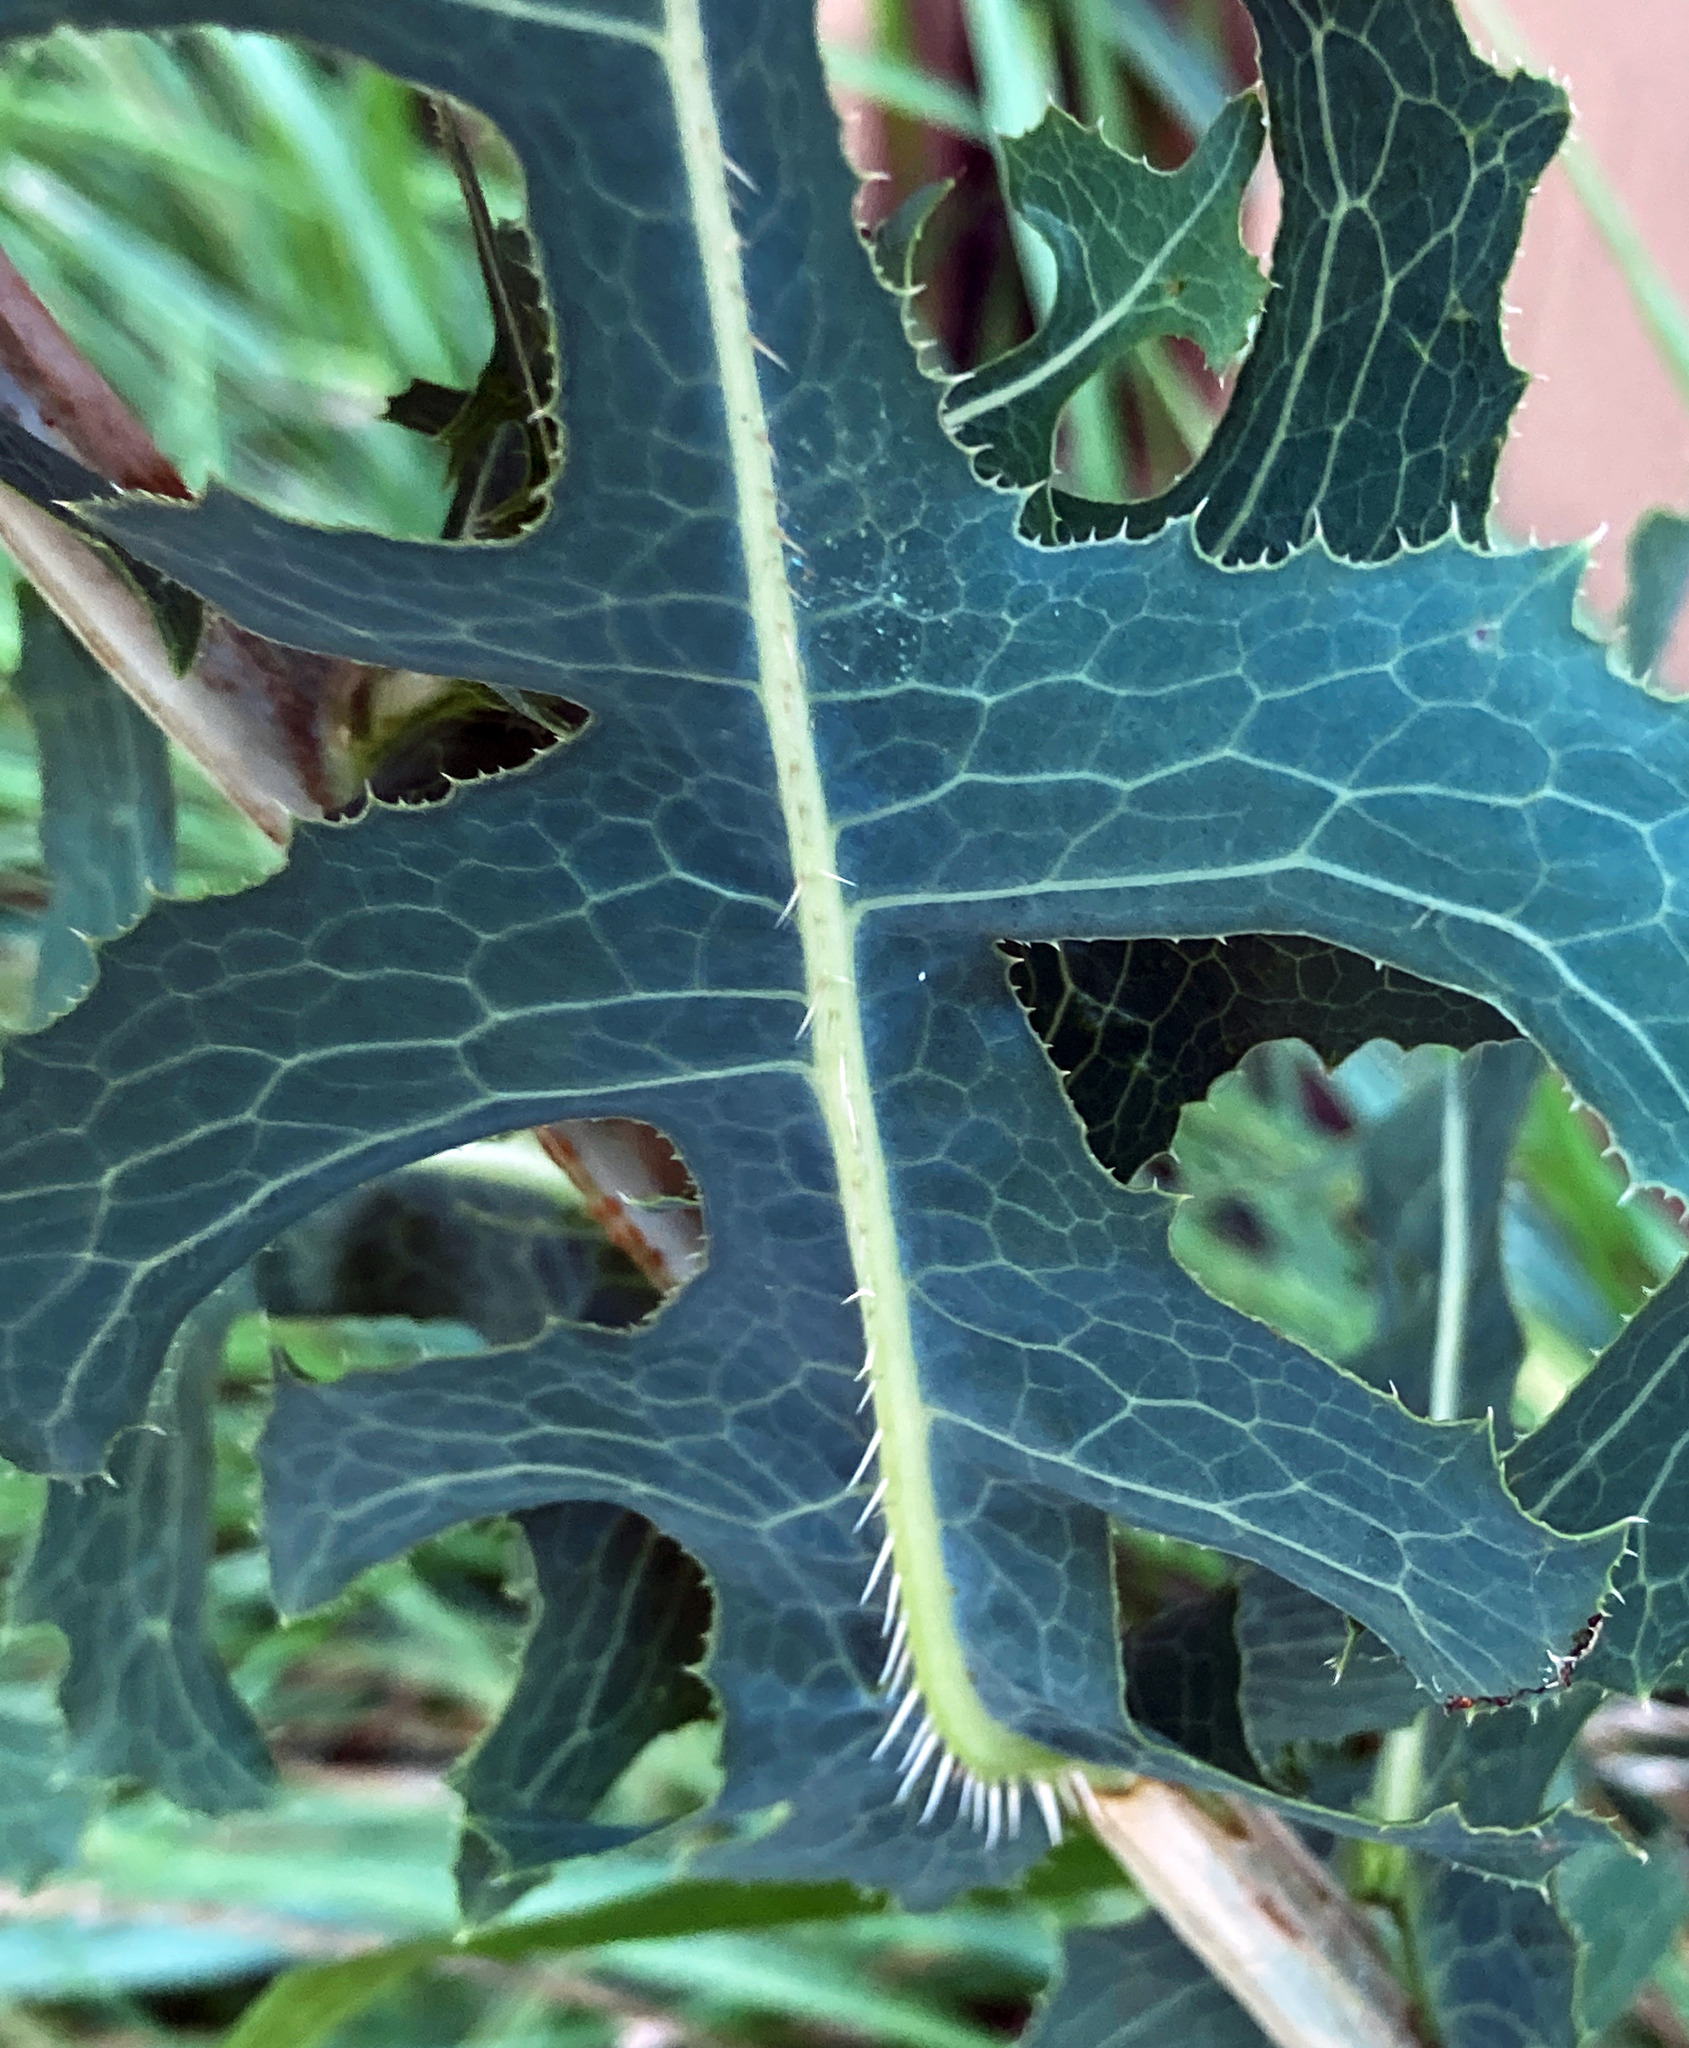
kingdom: Plantae
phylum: Tracheophyta
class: Magnoliopsida
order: Asterales
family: Asteraceae
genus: Lactuca
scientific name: Lactuca serriola
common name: Prickly lettuce
